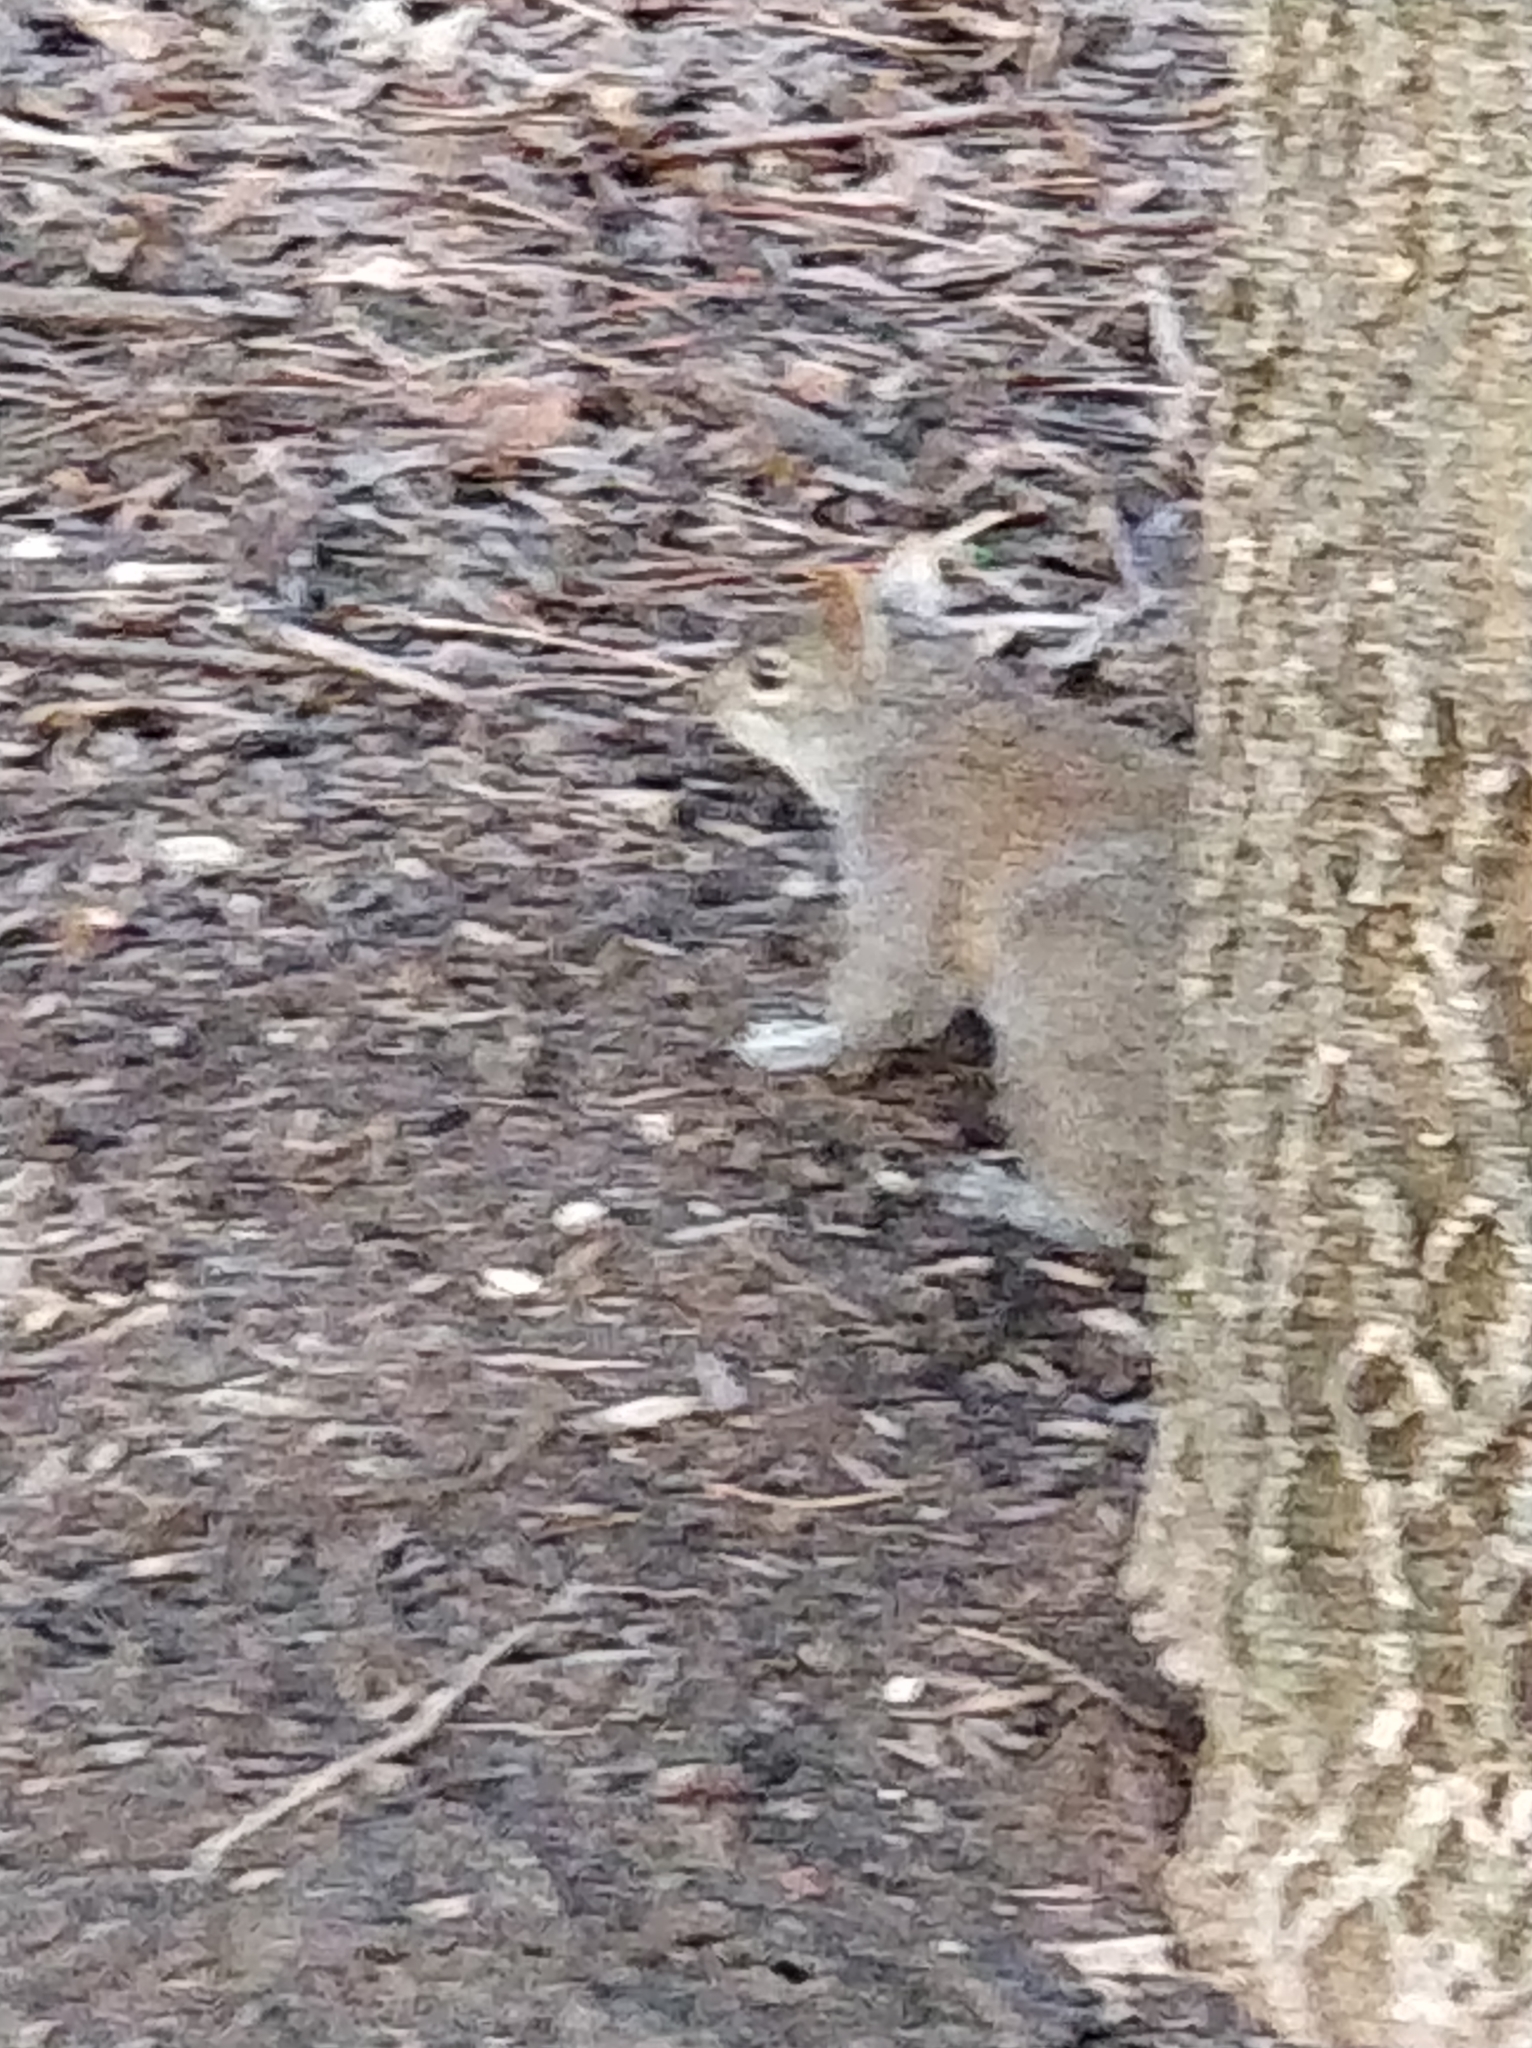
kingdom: Animalia
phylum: Chordata
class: Mammalia
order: Rodentia
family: Sciuridae
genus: Sciurus
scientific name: Sciurus carolinensis
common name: Eastern gray squirrel
